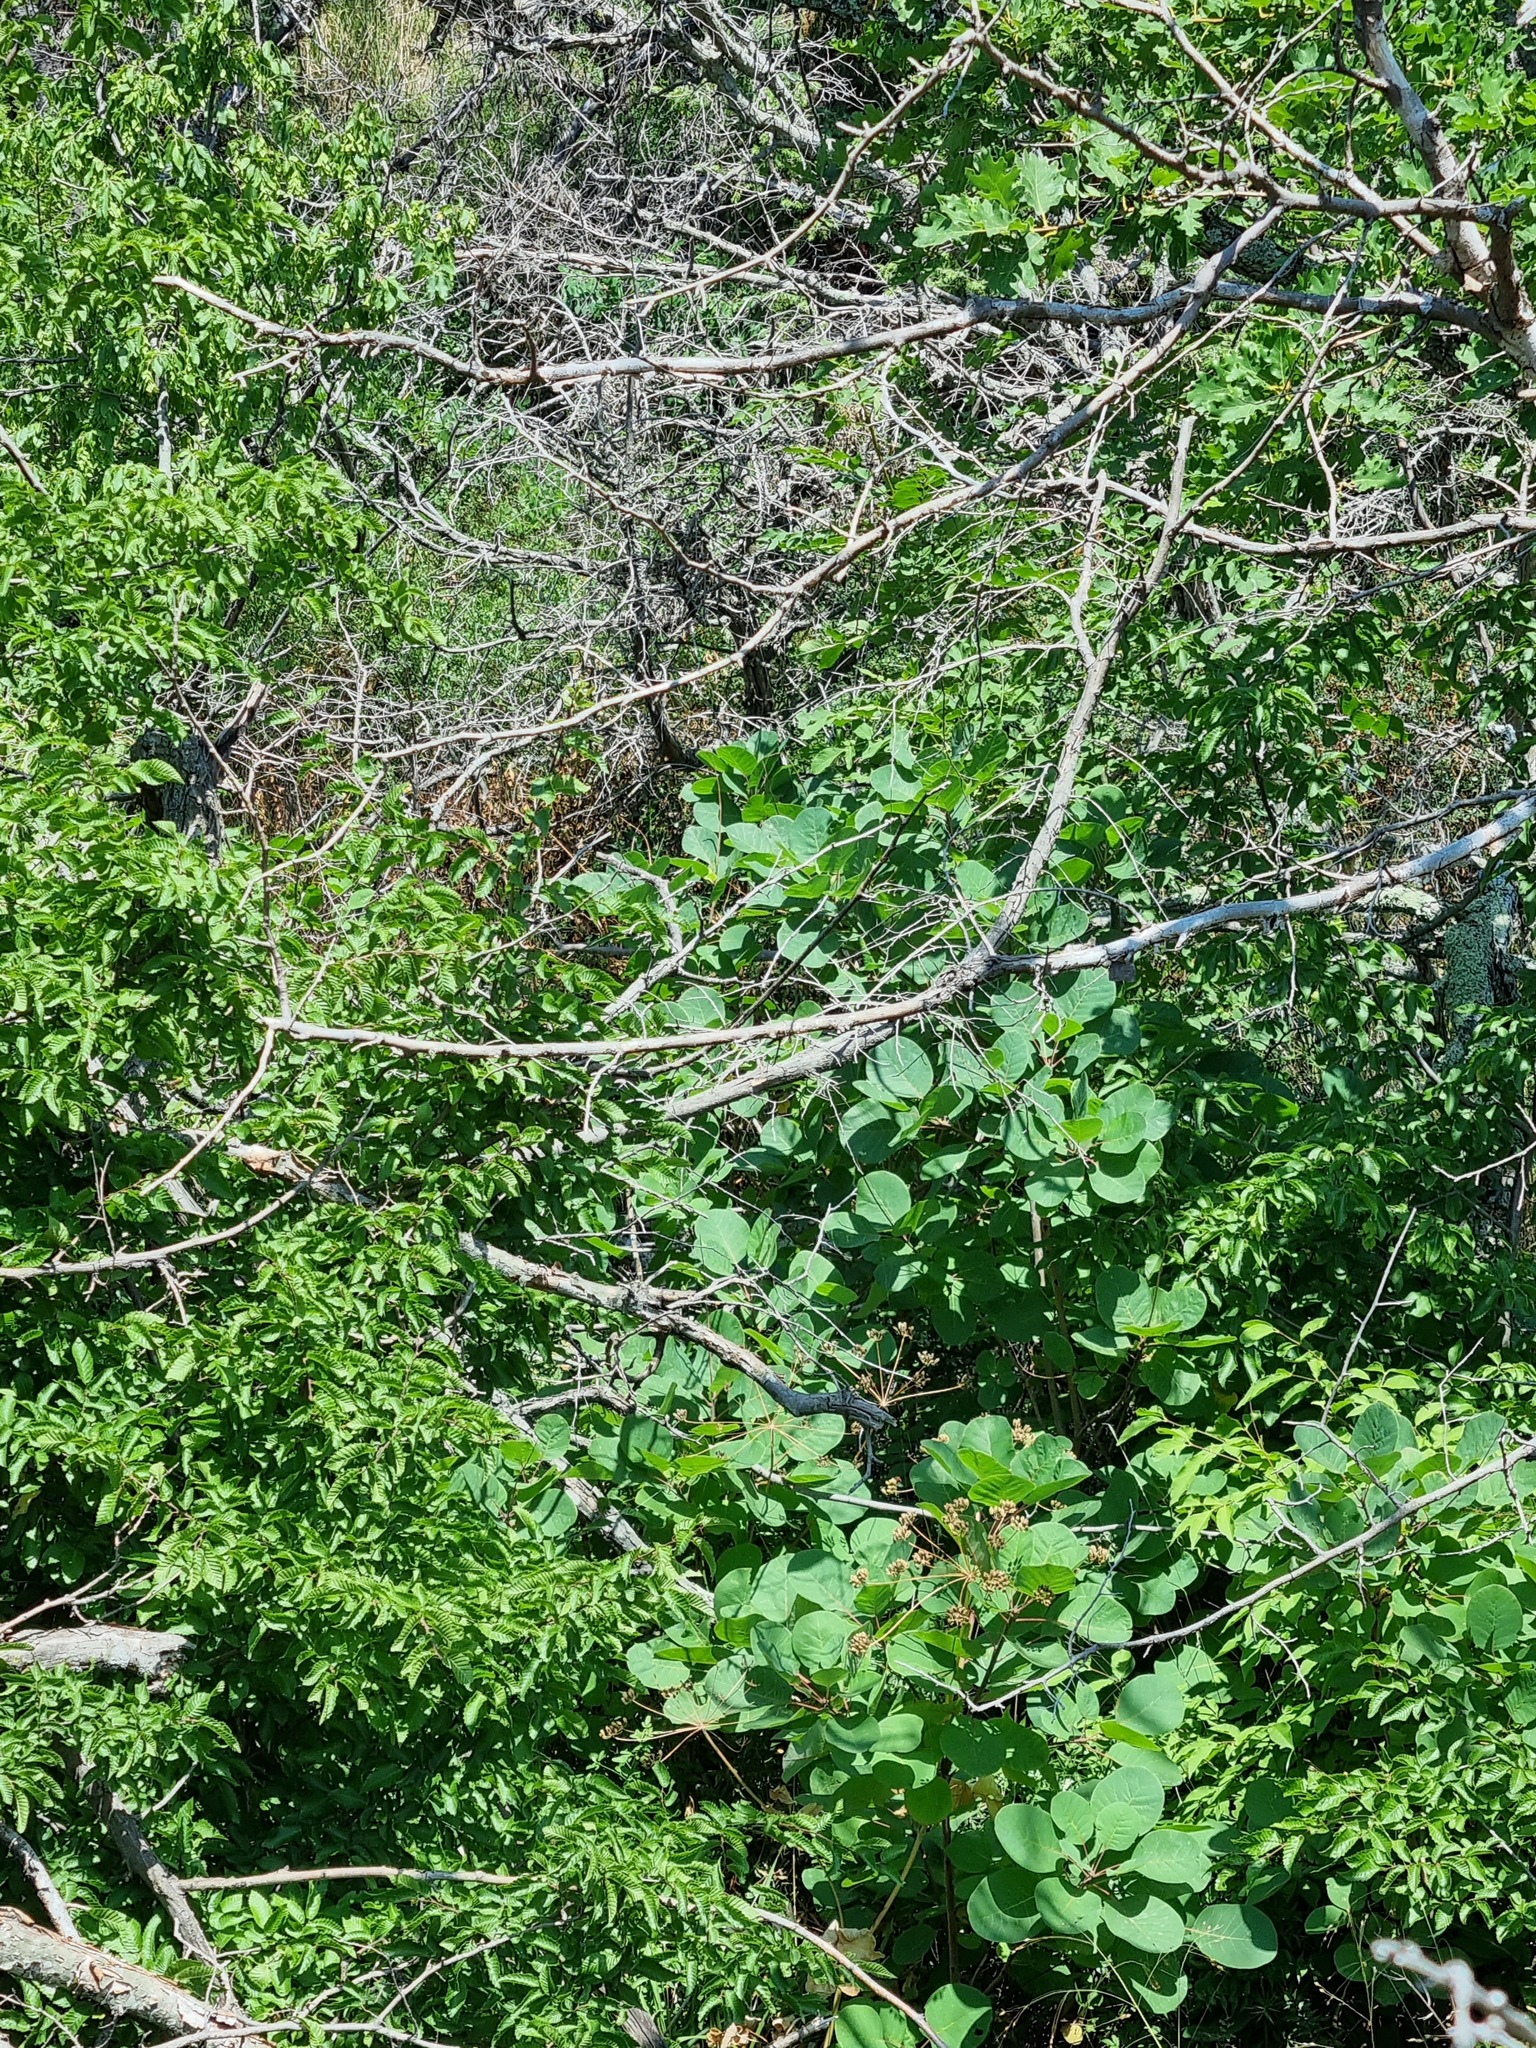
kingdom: Plantae
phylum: Tracheophyta
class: Magnoliopsida
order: Sapindales
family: Anacardiaceae
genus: Cotinus
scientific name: Cotinus coggygria
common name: Smoke-tree
